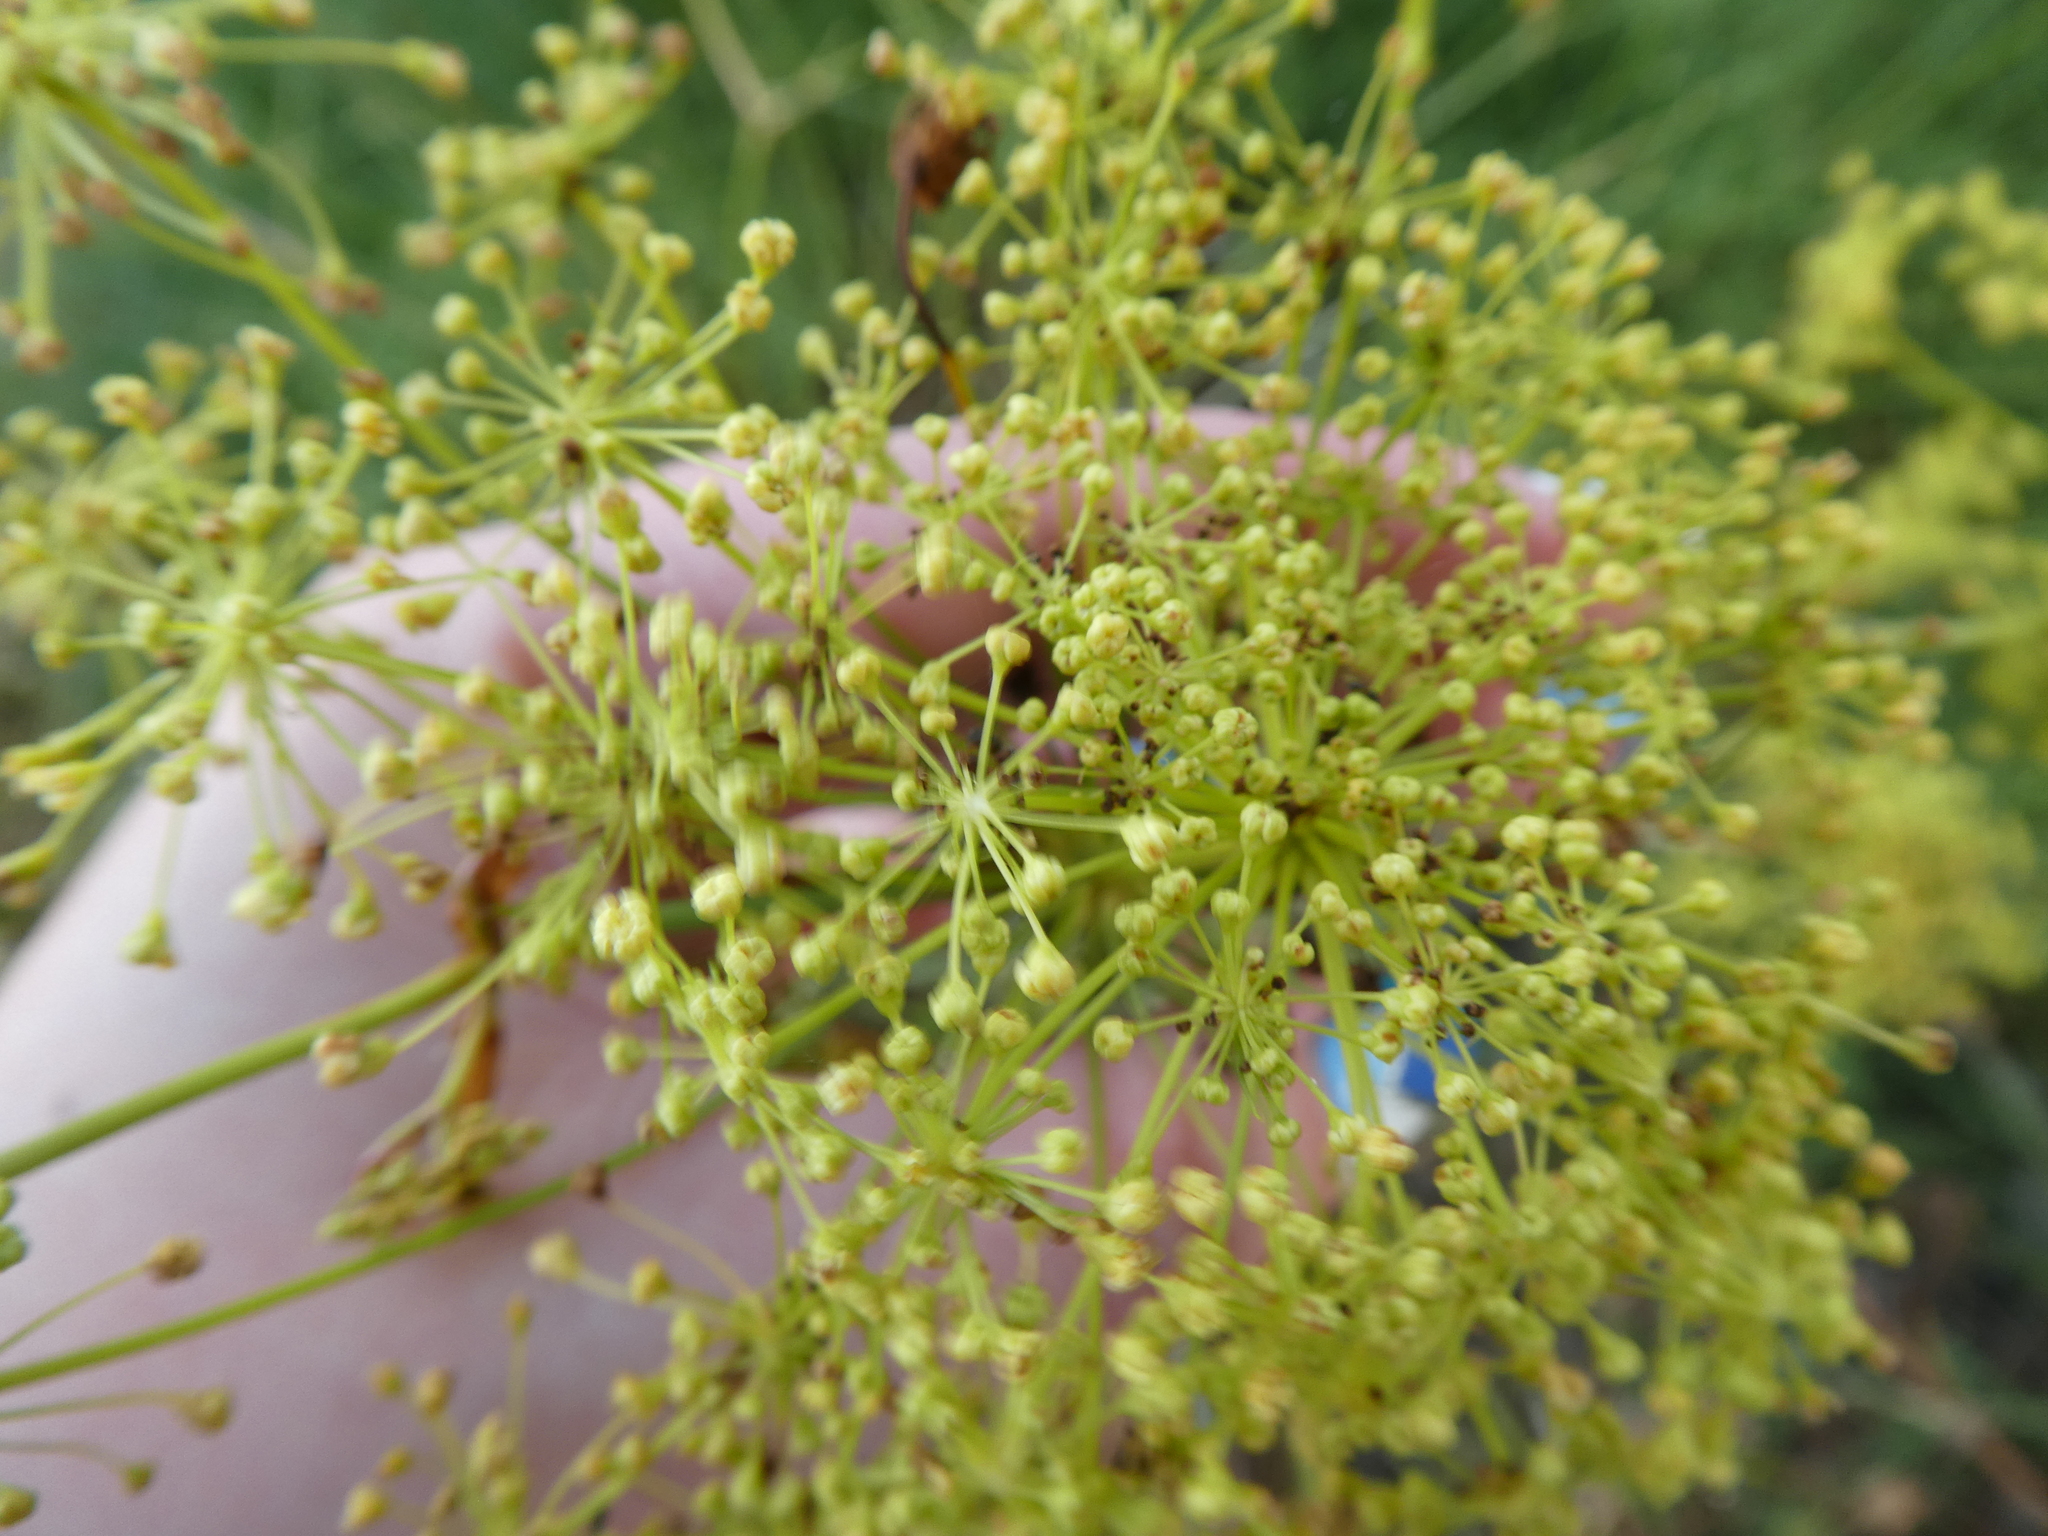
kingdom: Plantae
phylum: Tracheophyta
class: Magnoliopsida
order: Apiales
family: Apiaceae
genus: Peucedanum
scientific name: Peucedanum officinale
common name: Sulphurweed
